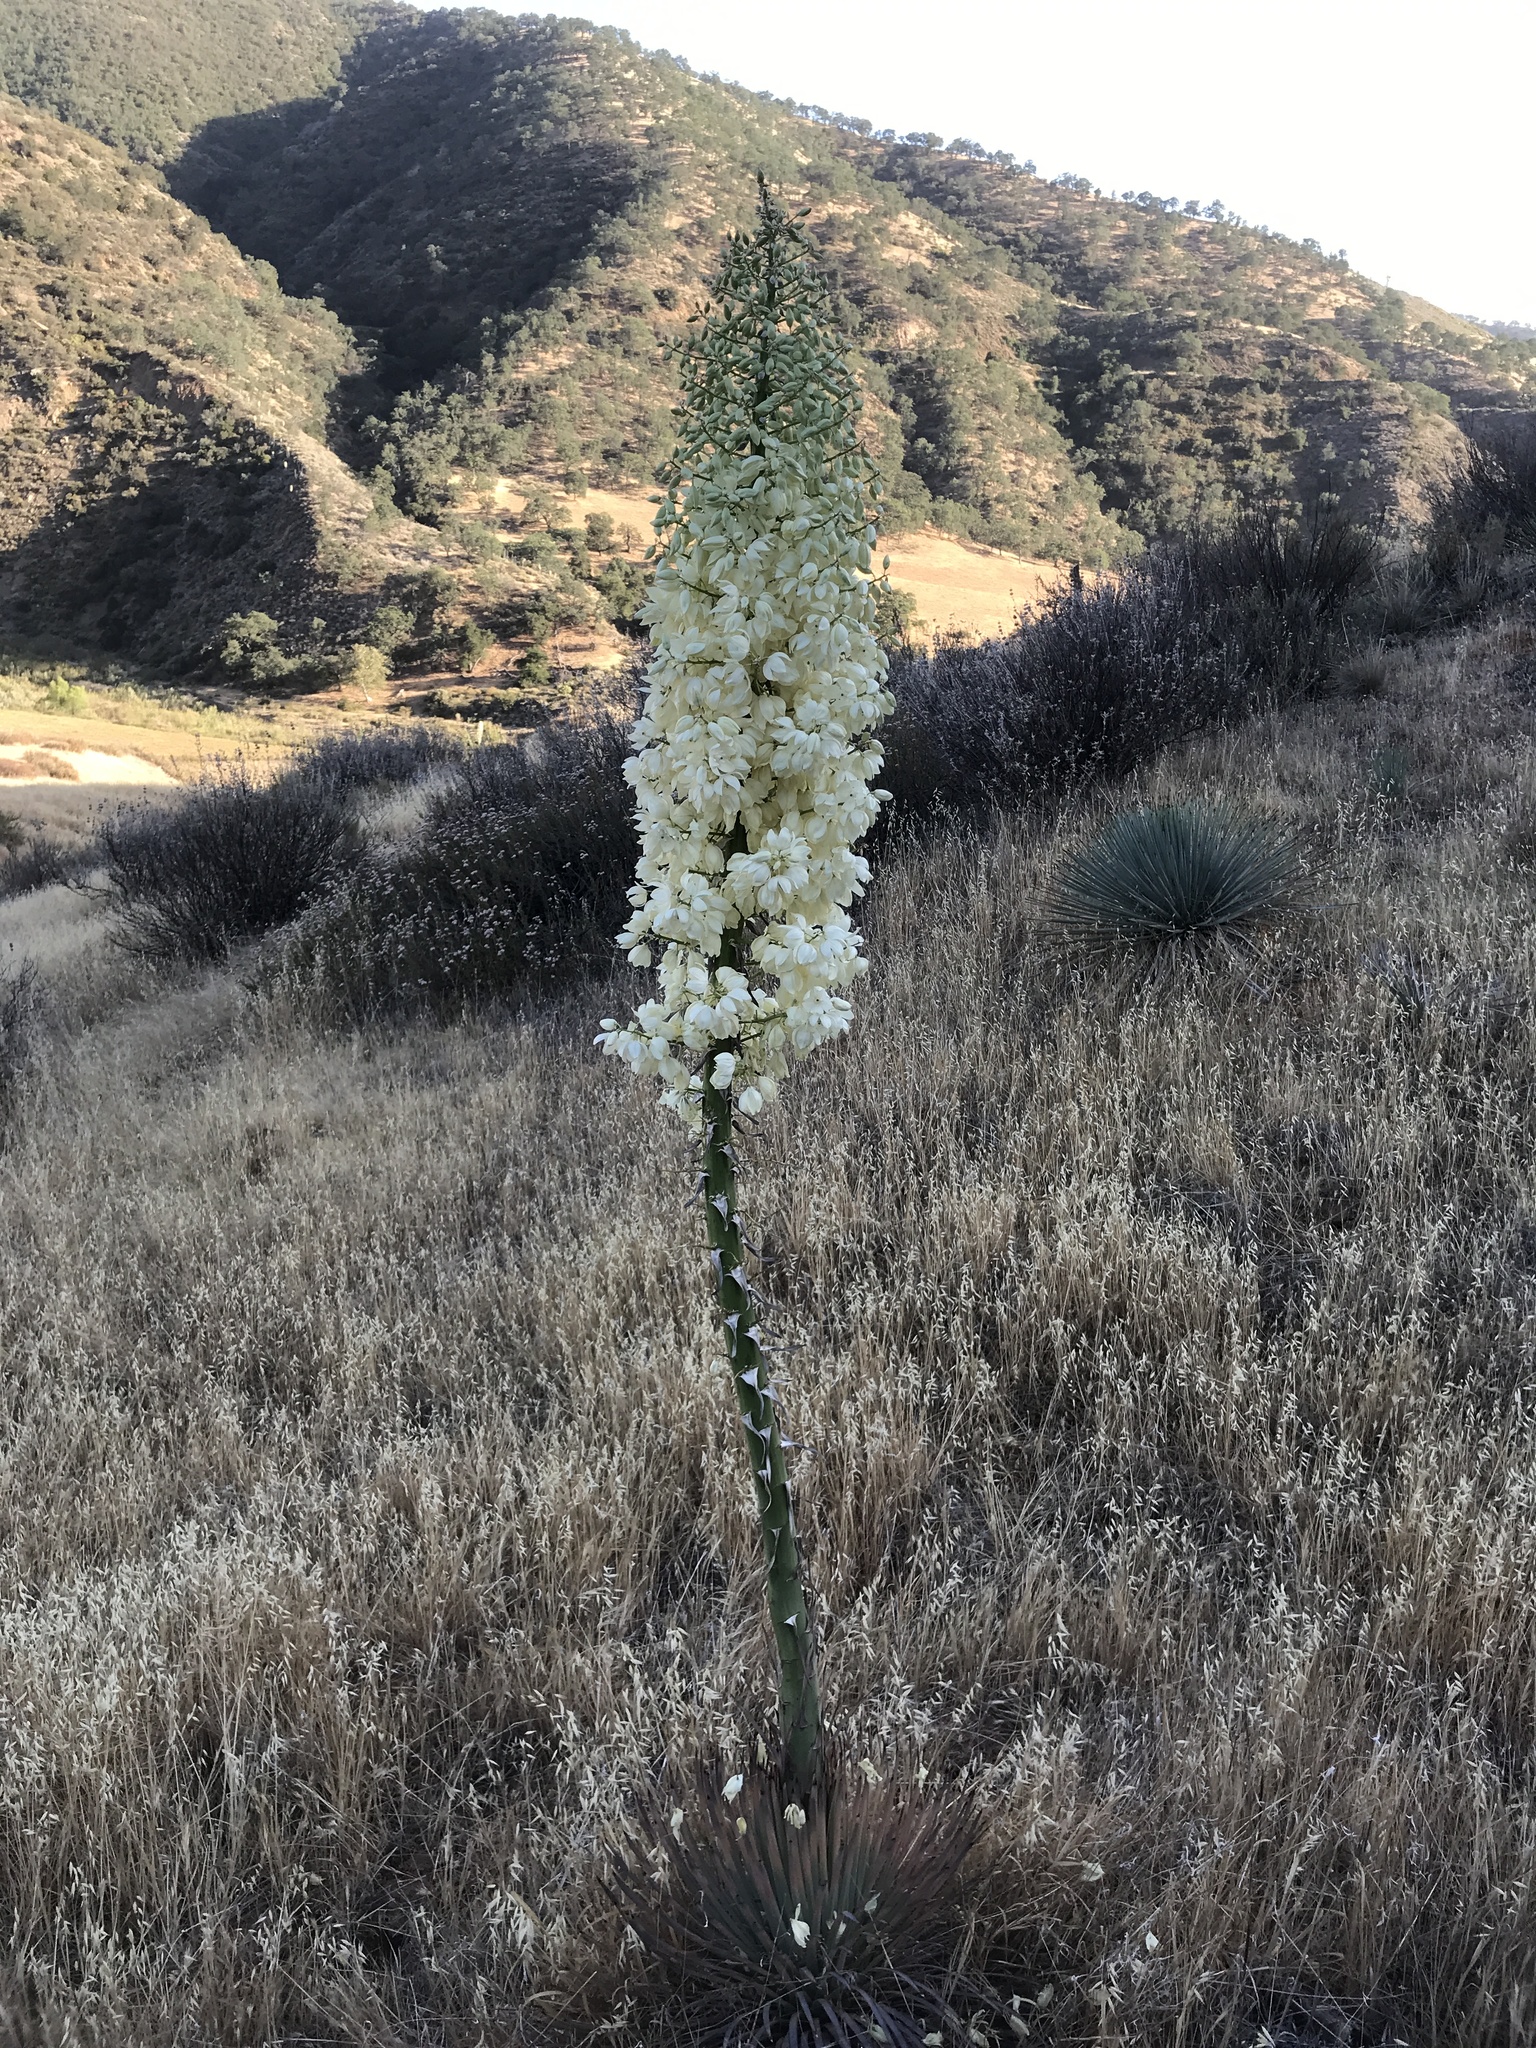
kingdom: Plantae
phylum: Tracheophyta
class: Liliopsida
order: Asparagales
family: Asparagaceae
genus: Hesperoyucca
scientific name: Hesperoyucca whipplei
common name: Our lord's-candle
